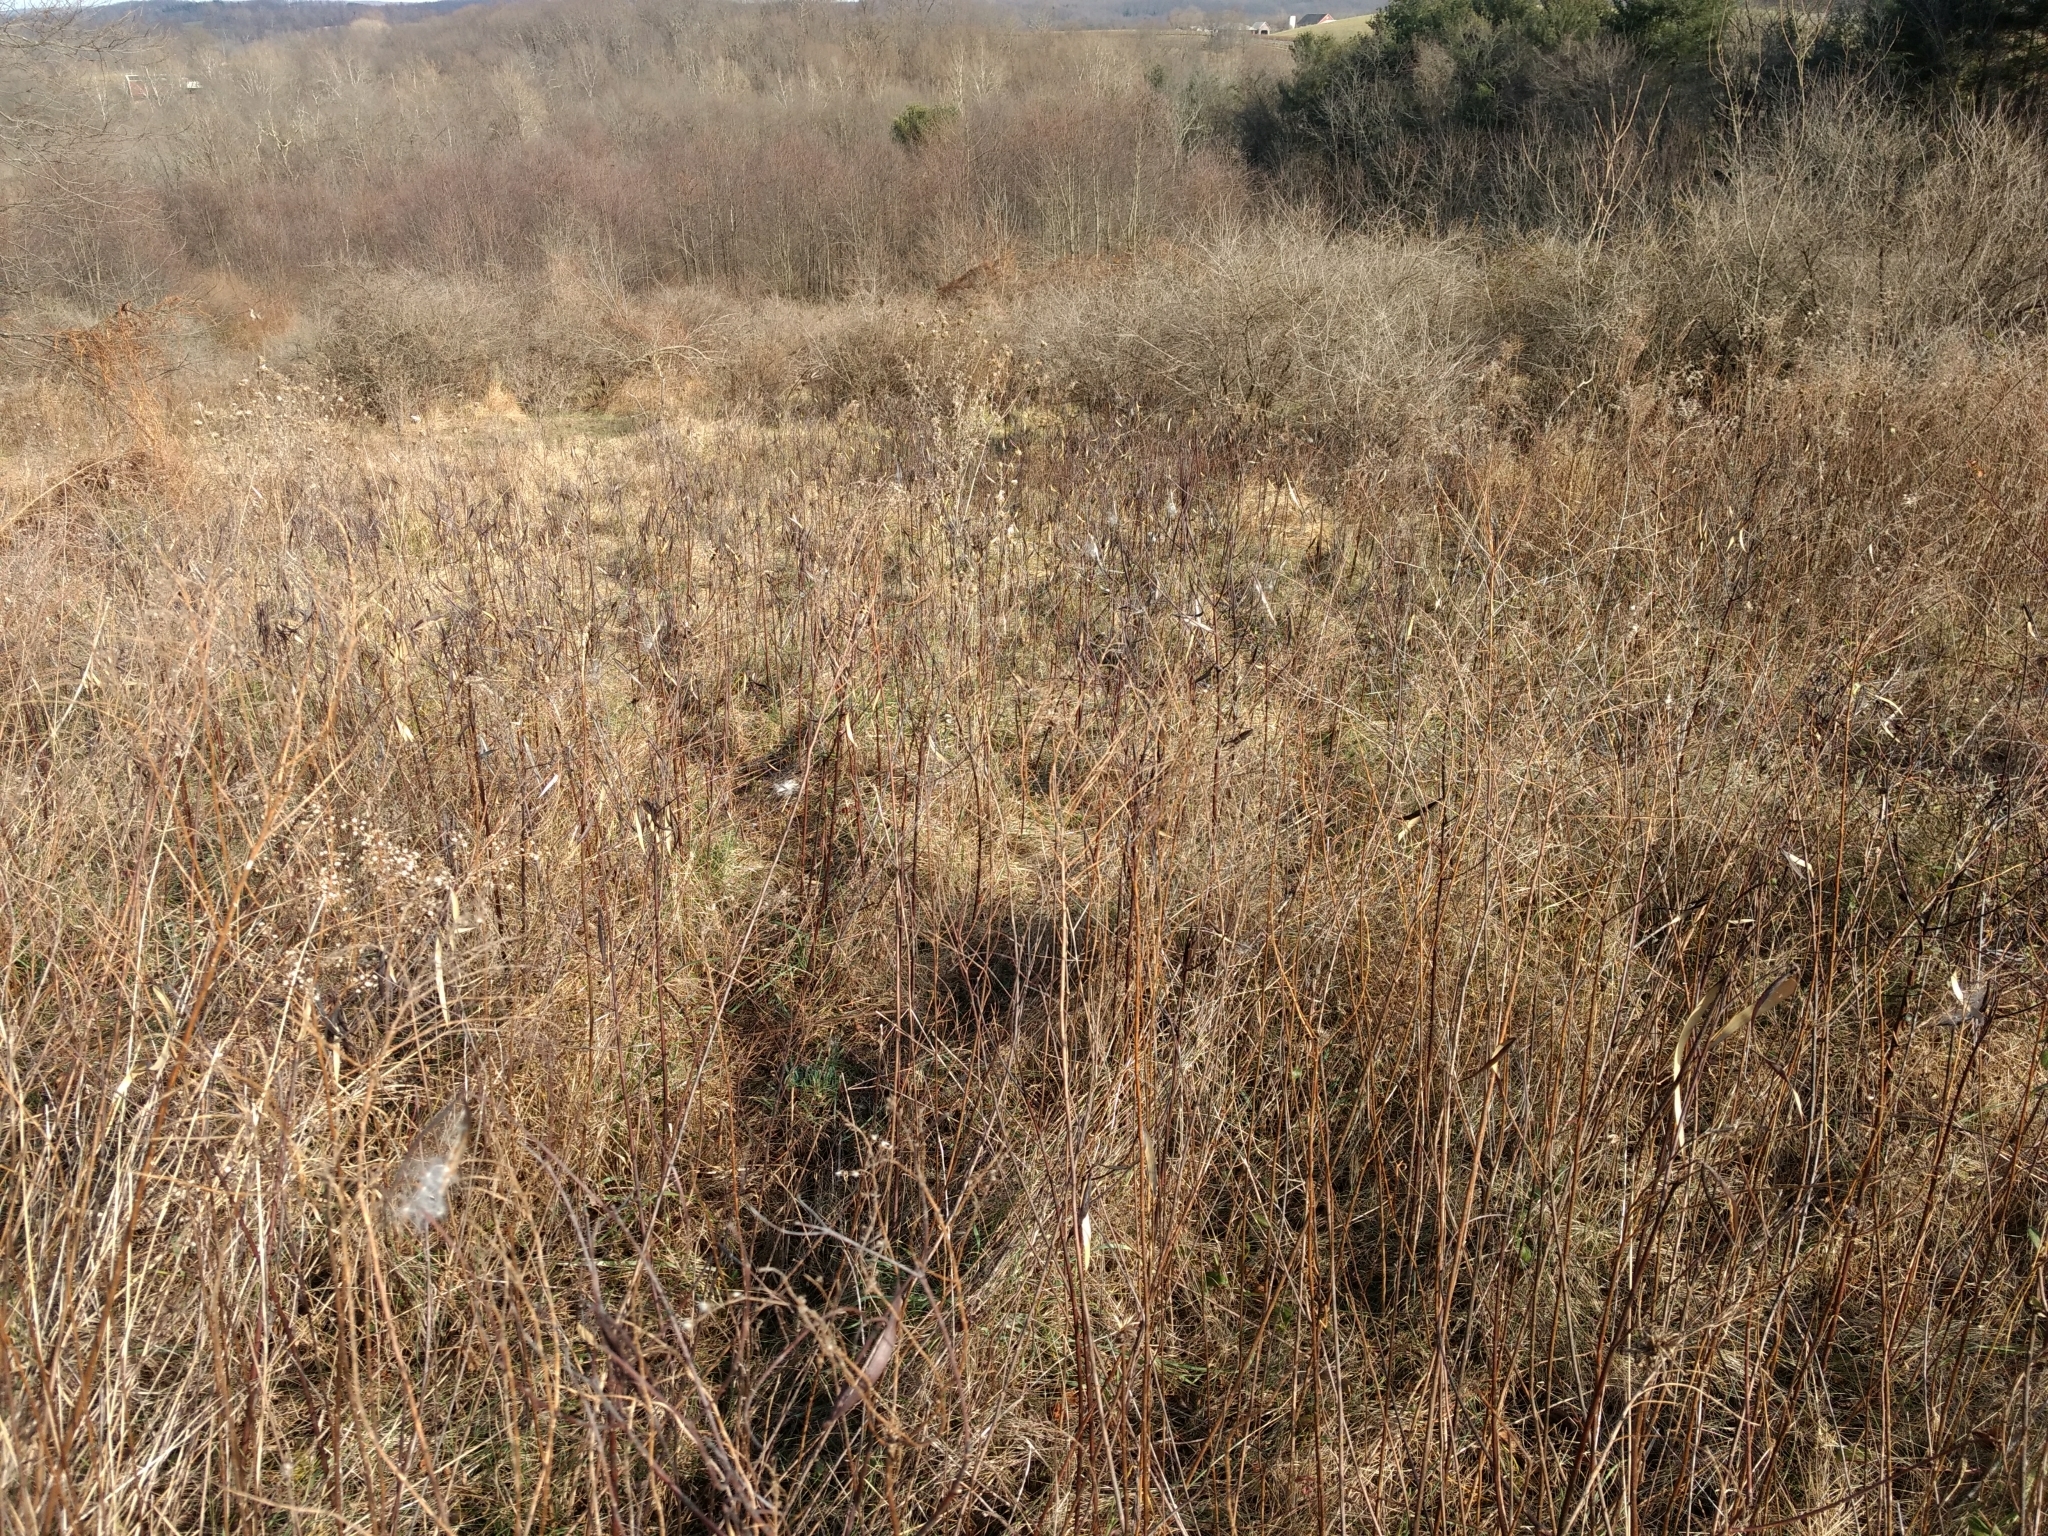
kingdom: Plantae
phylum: Tracheophyta
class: Magnoliopsida
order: Gentianales
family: Apocynaceae
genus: Apocynum
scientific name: Apocynum cannabinum
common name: Hemp dogbane
